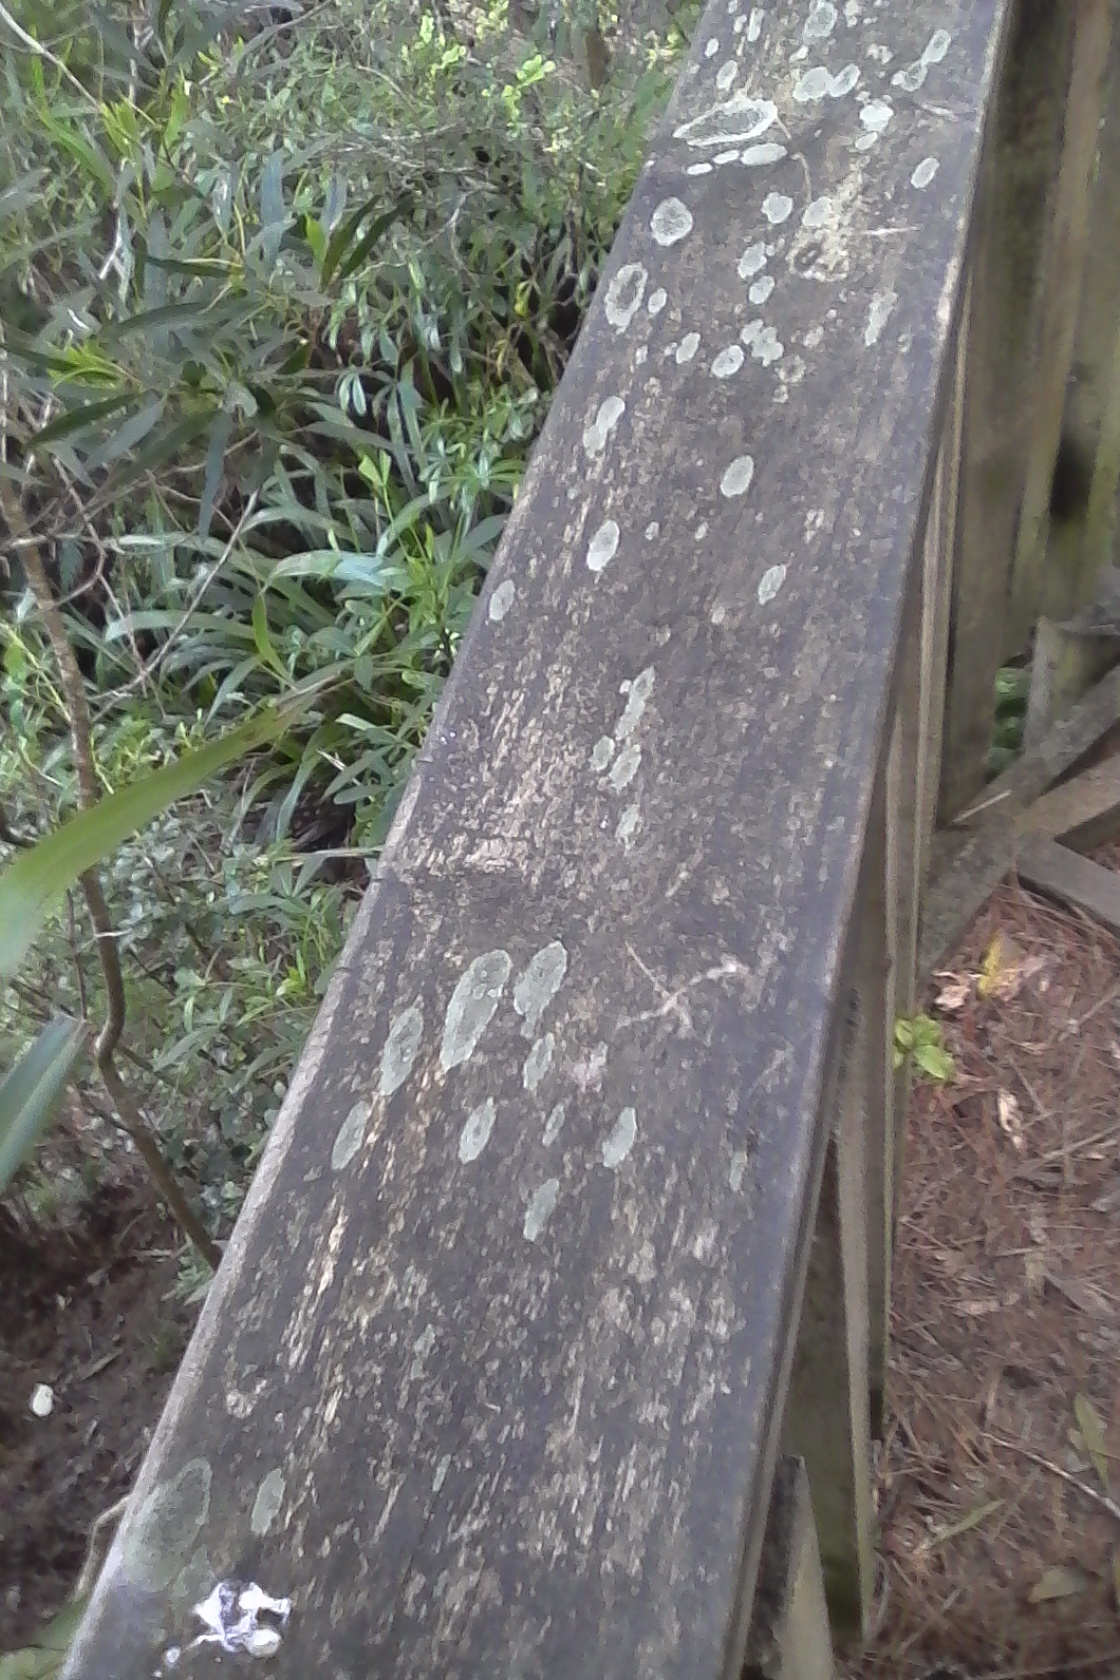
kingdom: Fungi
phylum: Ascomycota
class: Lecanoromycetes
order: Lecanorales
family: Byssolomataceae
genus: Byssoloma
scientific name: Byssoloma
